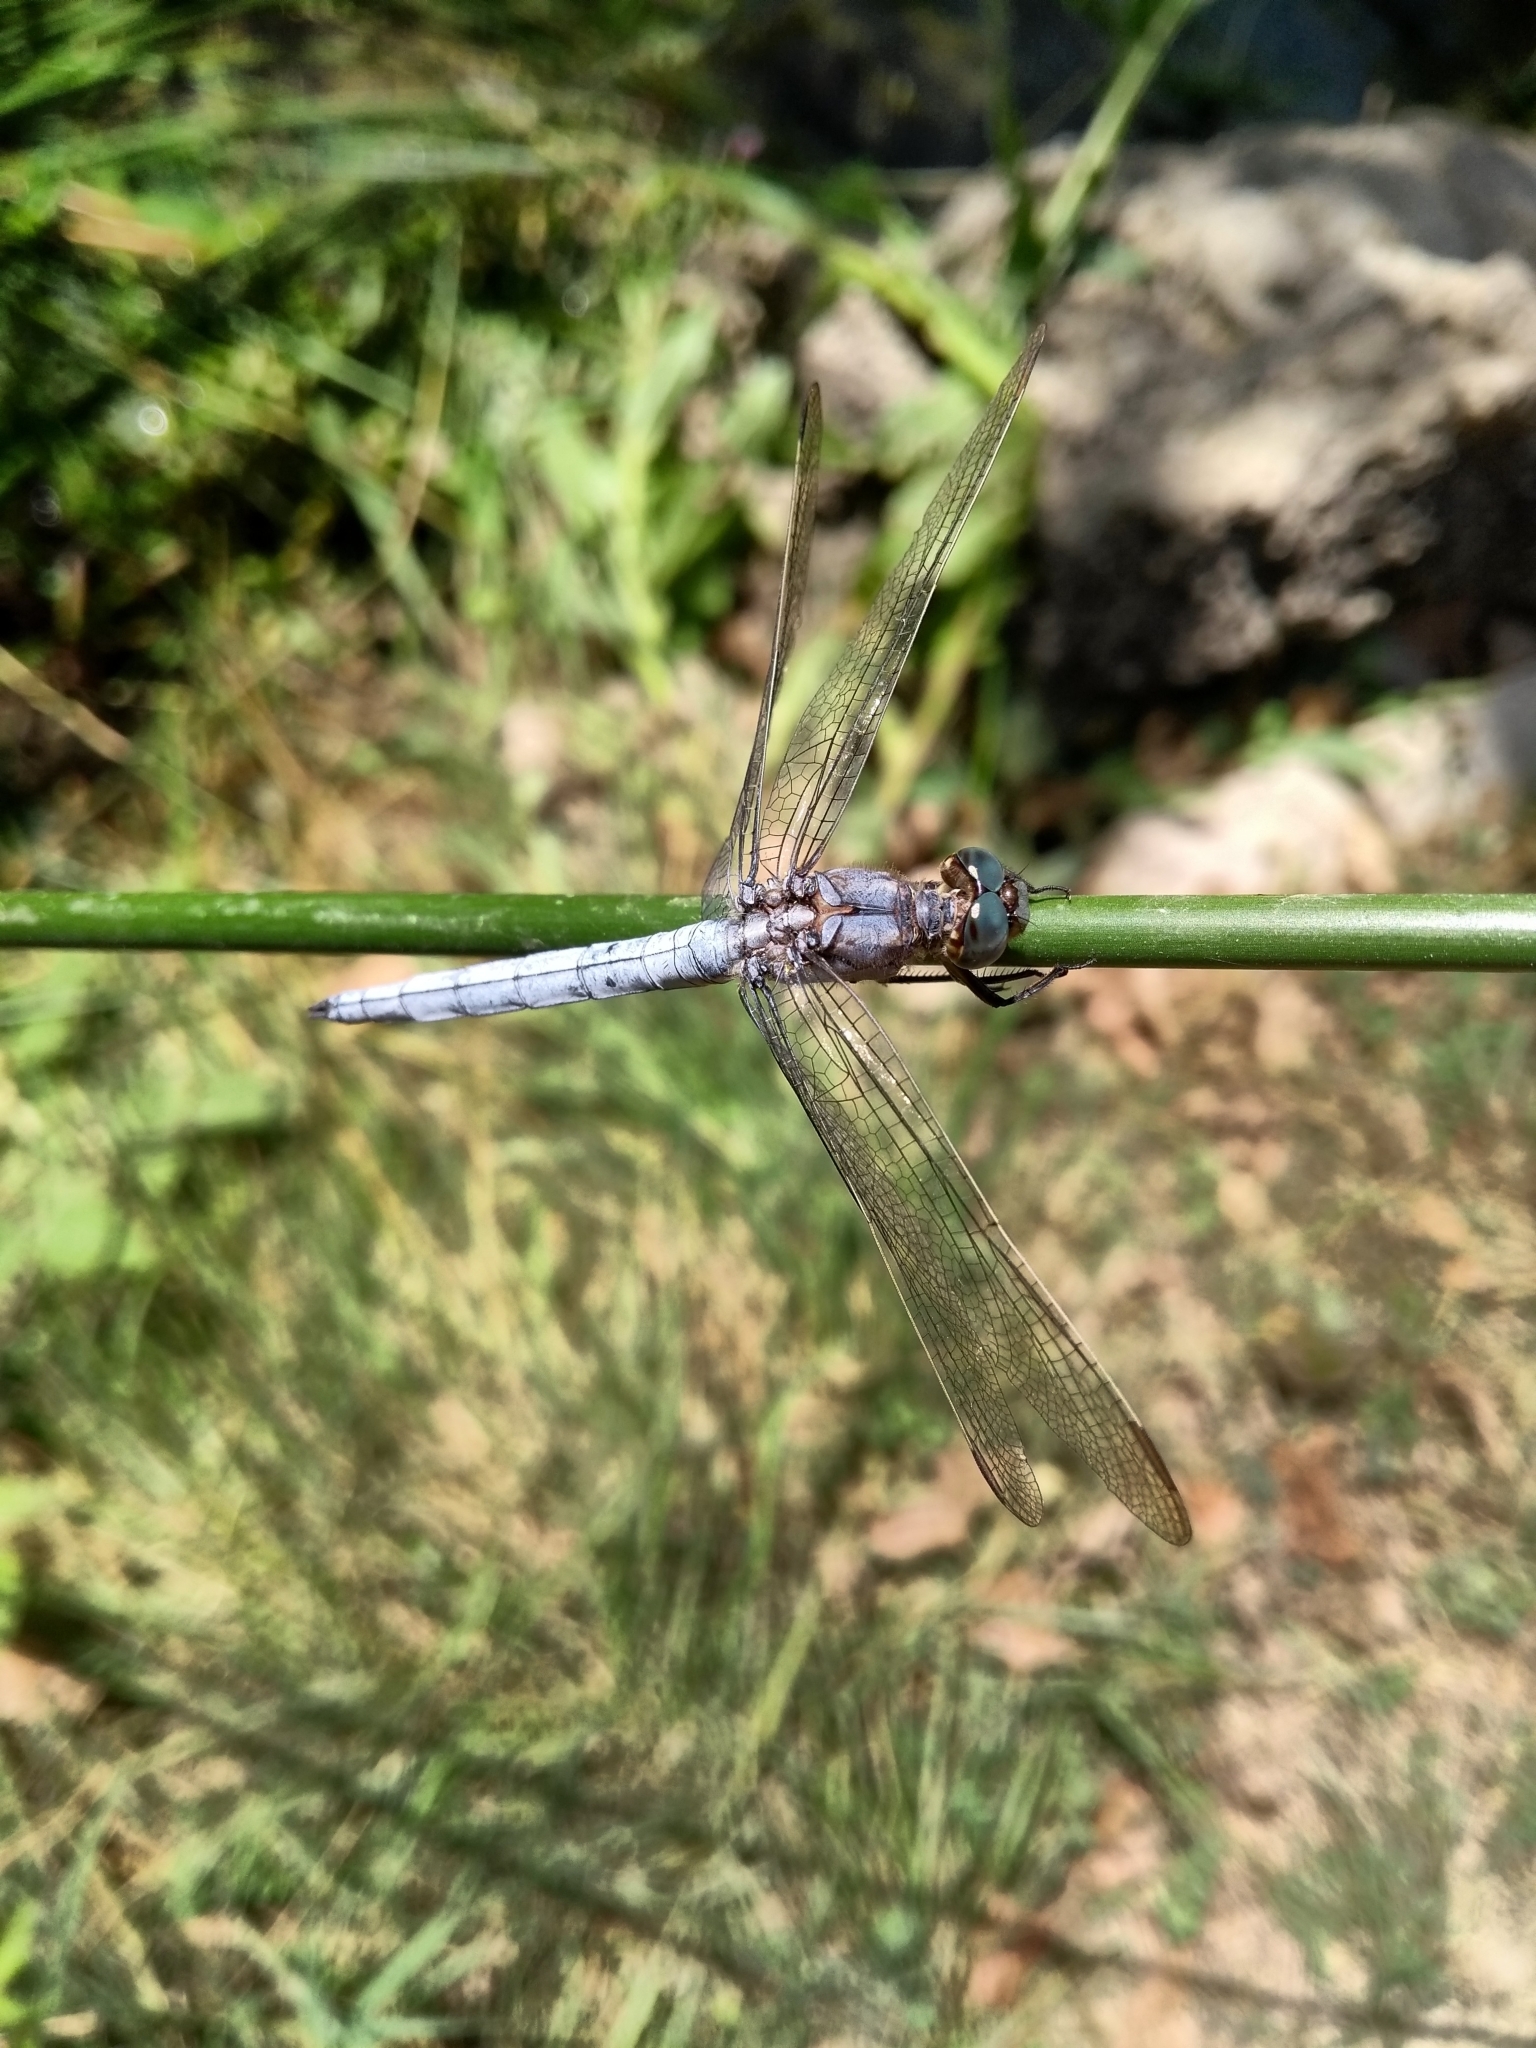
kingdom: Animalia
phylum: Arthropoda
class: Insecta
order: Odonata
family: Libellulidae
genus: Orthetrum
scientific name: Orthetrum coerulescens
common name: Keeled skimmer
